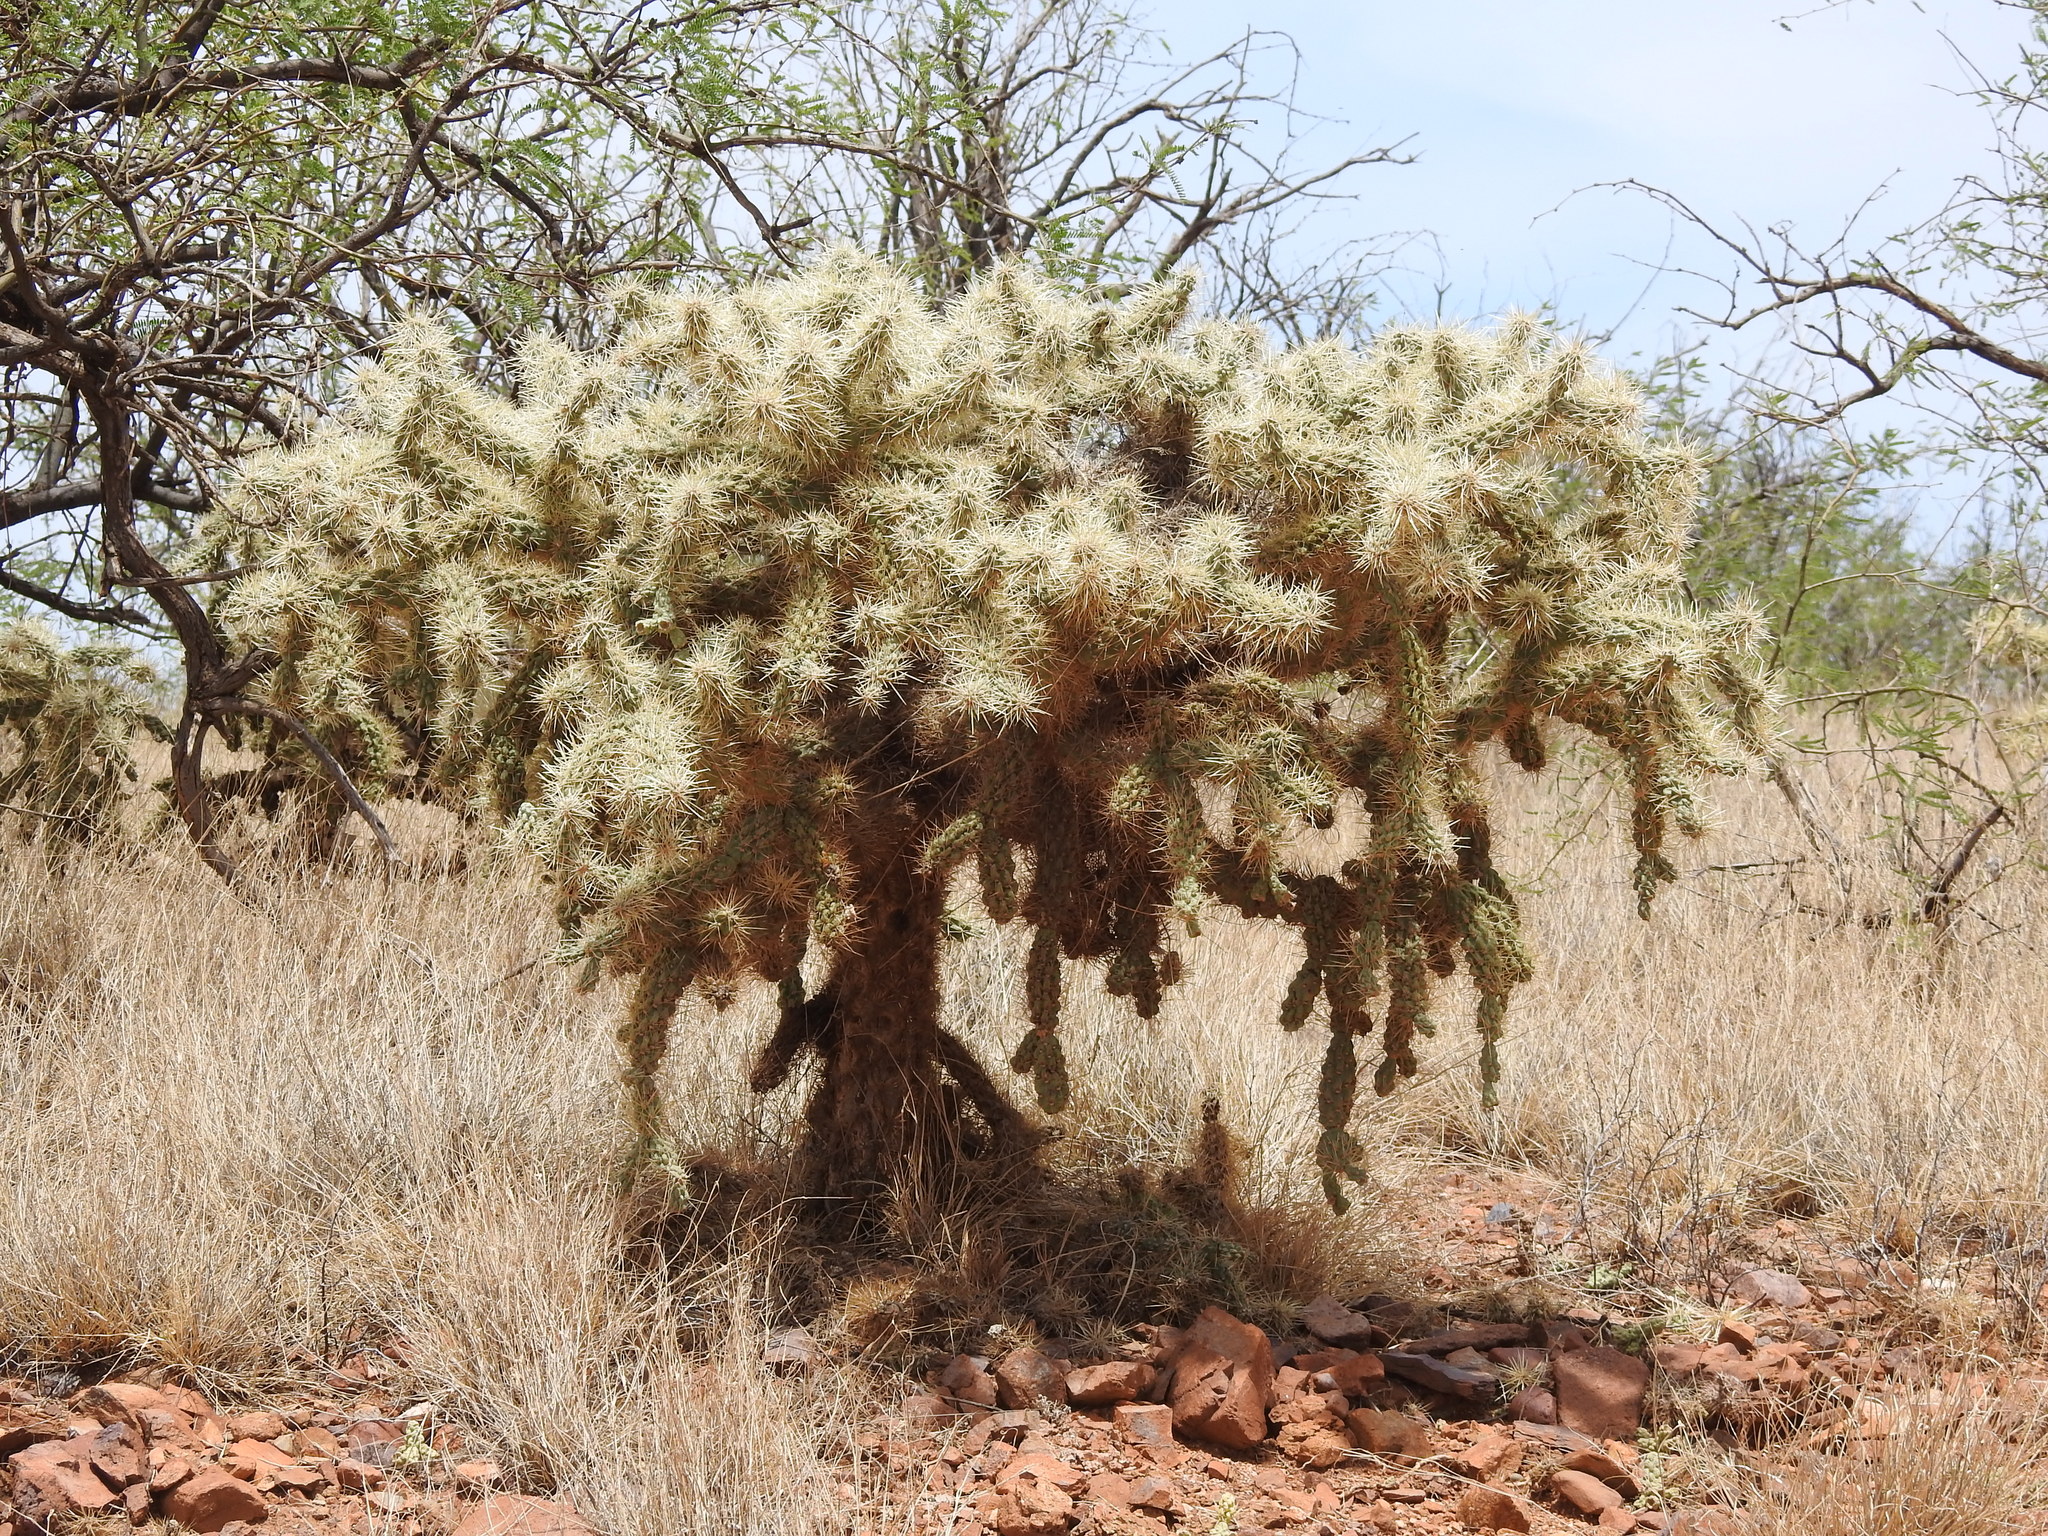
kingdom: Plantae
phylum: Tracheophyta
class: Magnoliopsida
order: Caryophyllales
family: Cactaceae
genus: Cylindropuntia
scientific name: Cylindropuntia fulgida
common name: Jumping cholla
